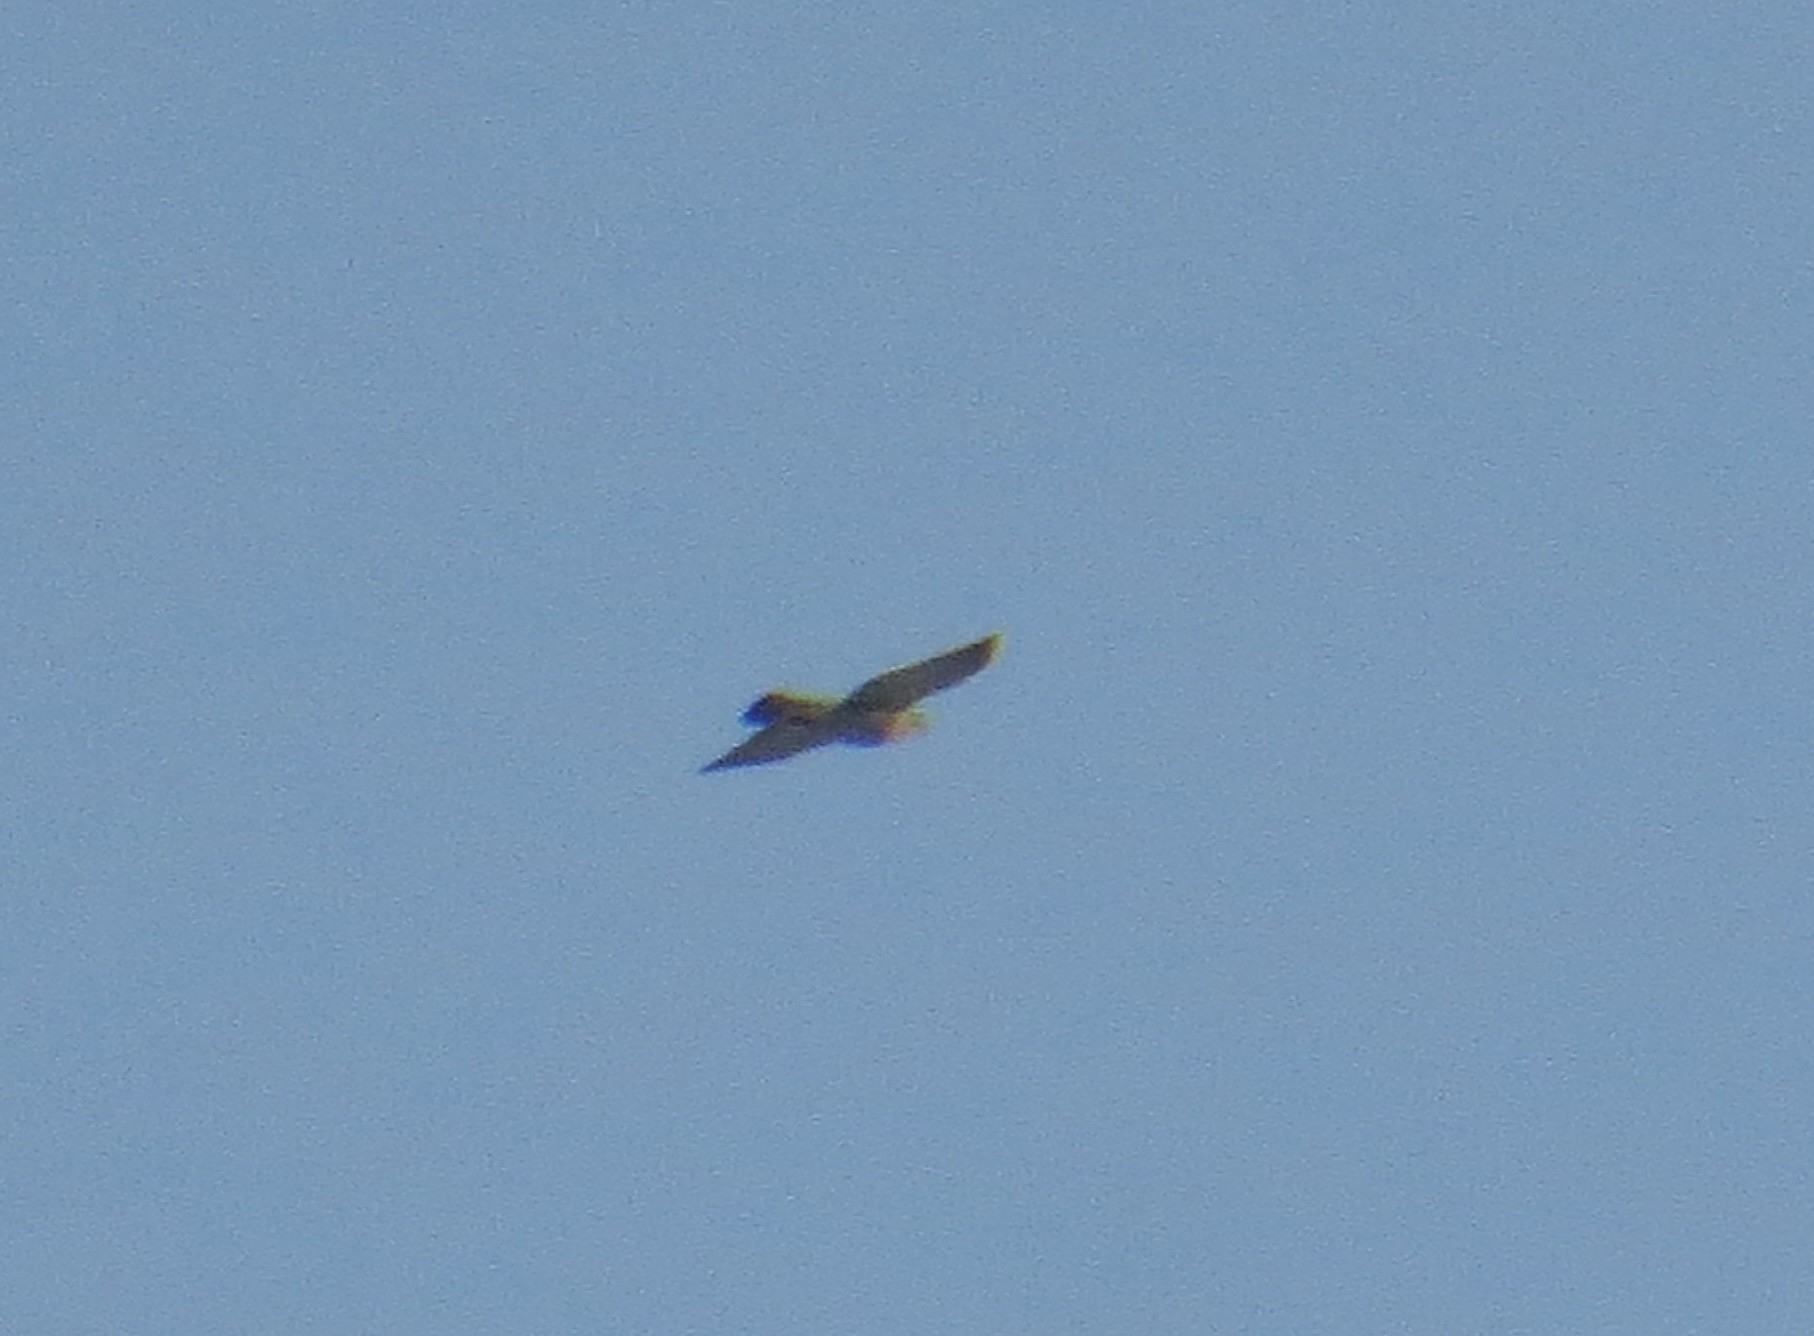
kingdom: Animalia
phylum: Chordata
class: Aves
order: Accipitriformes
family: Accipitridae
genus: Accipiter
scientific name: Accipiter nisus
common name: Eurasian sparrowhawk
